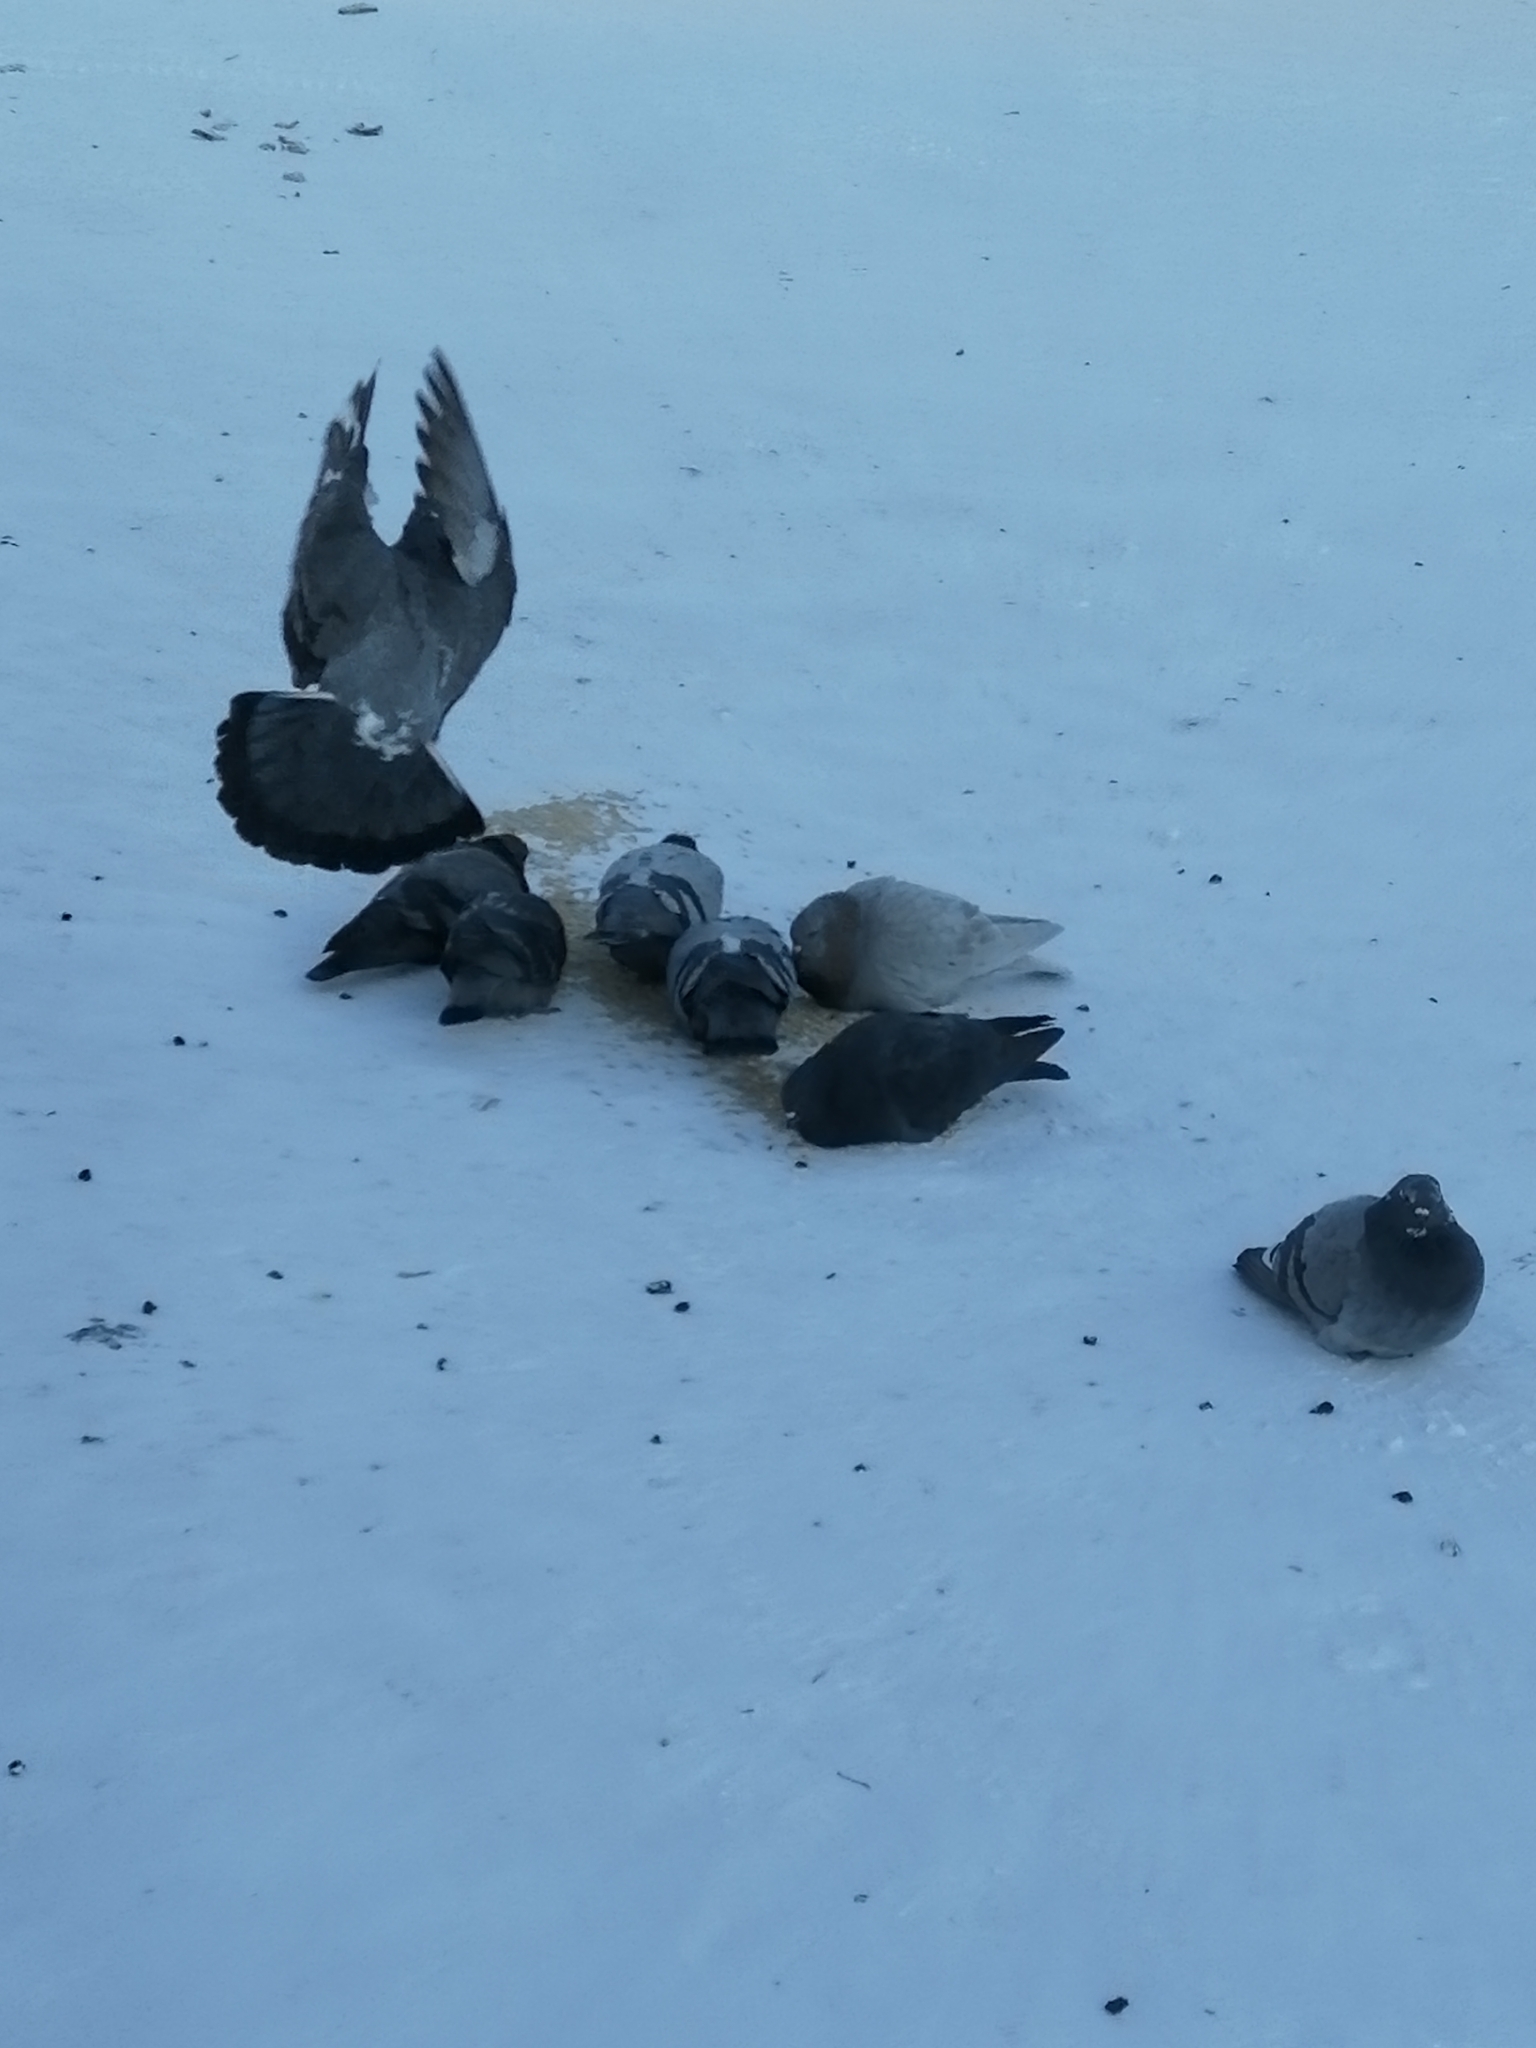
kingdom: Animalia
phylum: Chordata
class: Aves
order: Columbiformes
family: Columbidae
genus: Columba
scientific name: Columba livia
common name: Rock pigeon
